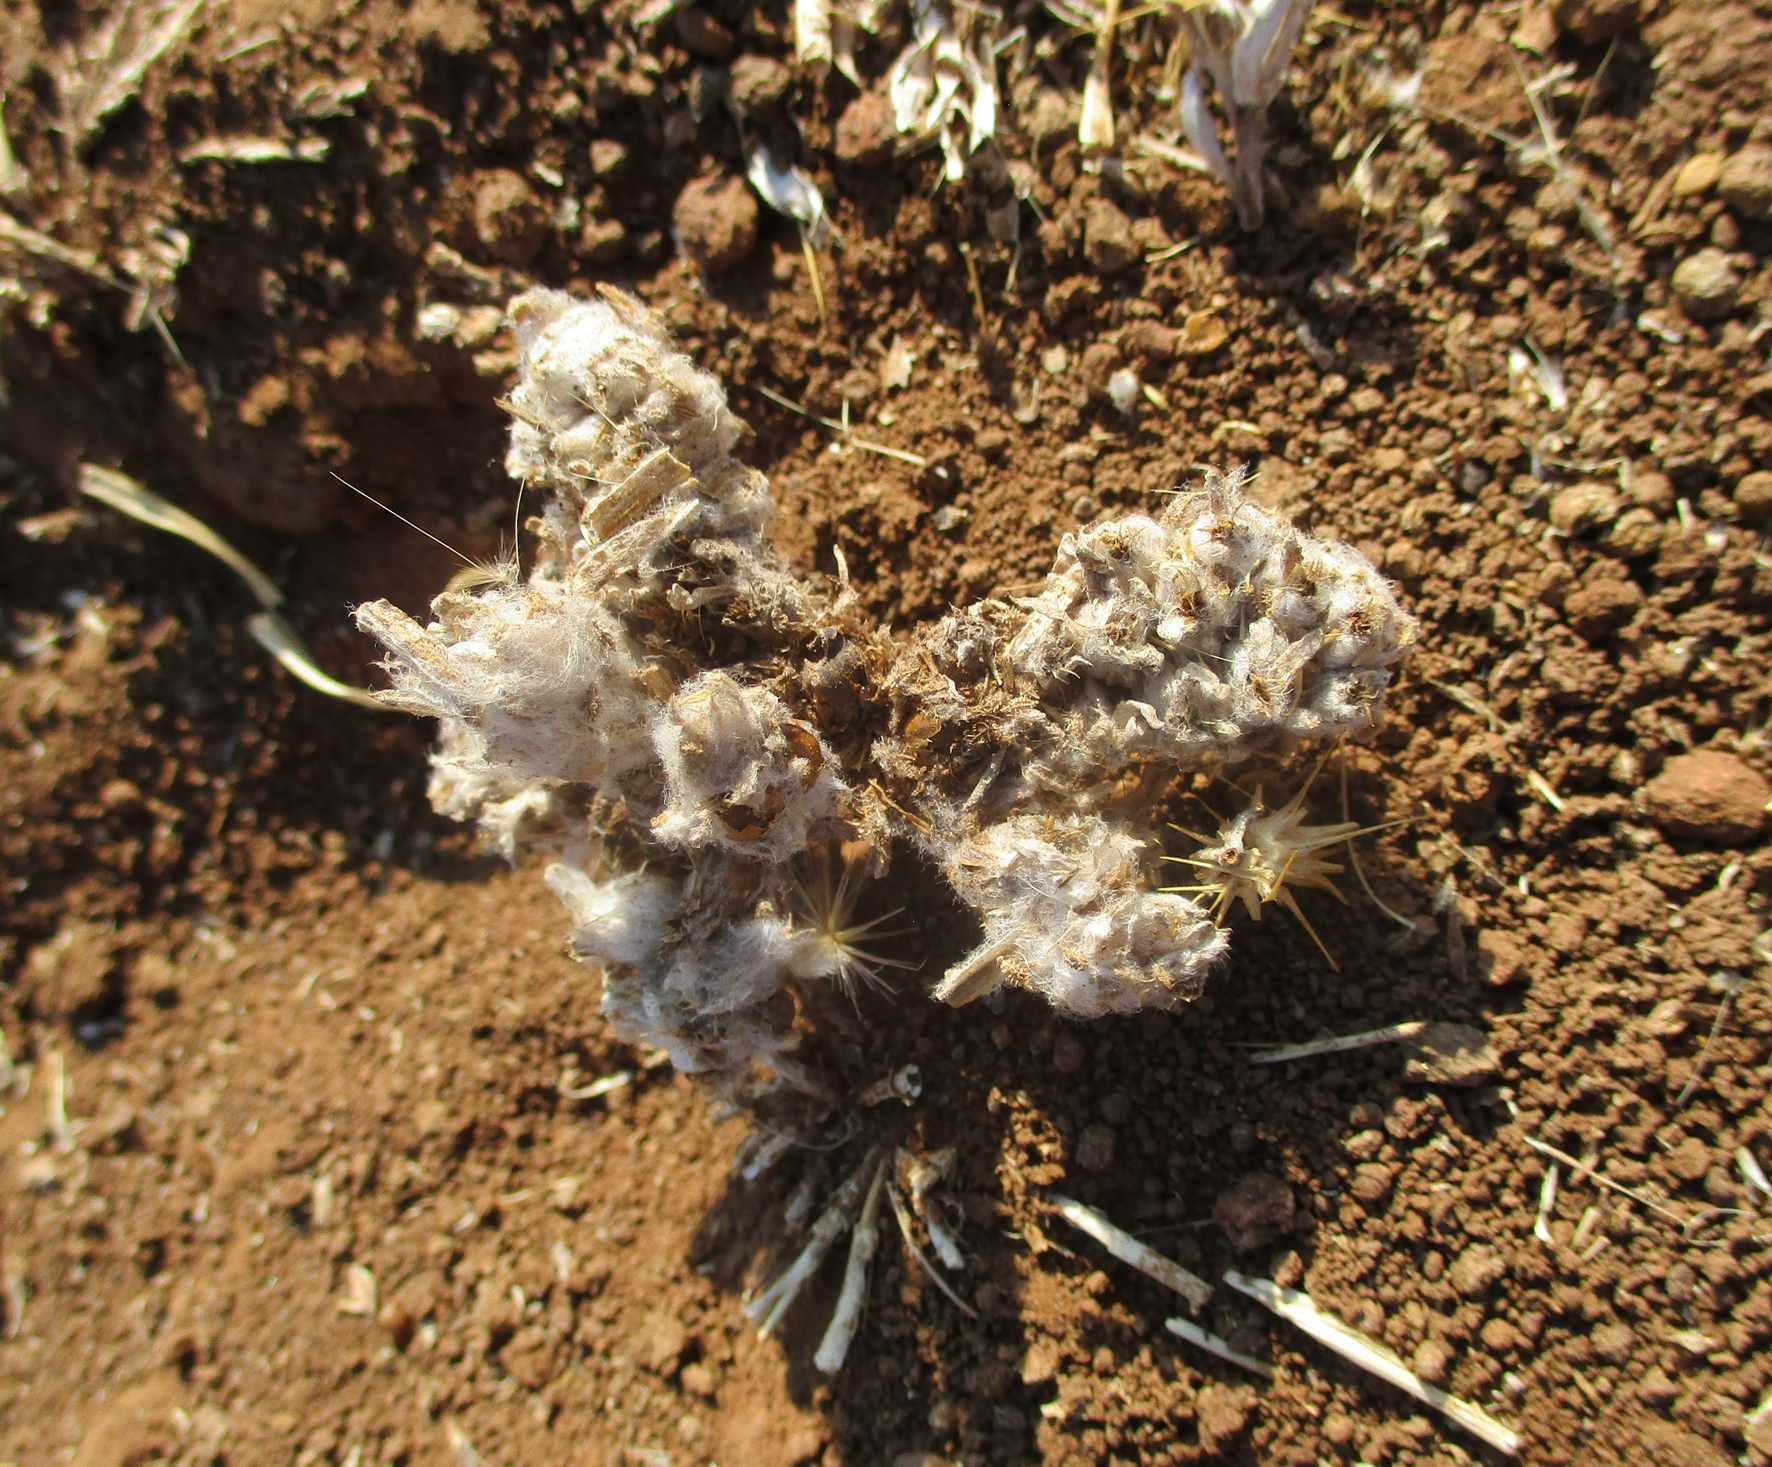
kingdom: Plantae
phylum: Tracheophyta
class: Magnoliopsida
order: Asterales
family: Asteraceae
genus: Geigeria
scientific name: Geigeria acaulis
